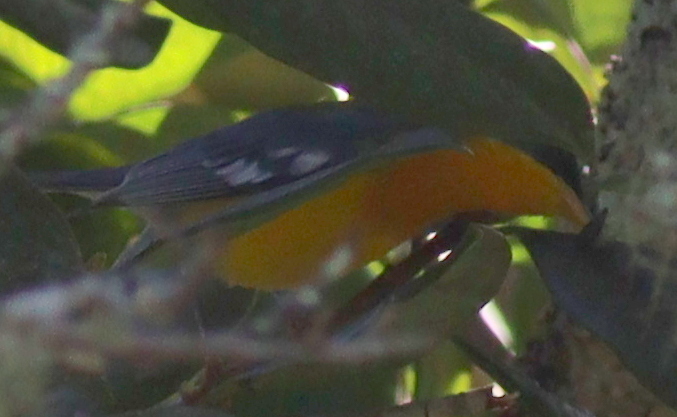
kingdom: Animalia
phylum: Chordata
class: Aves
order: Passeriformes
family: Parulidae
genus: Setophaga
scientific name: Setophaga pitiayumi
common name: Tropical parula
